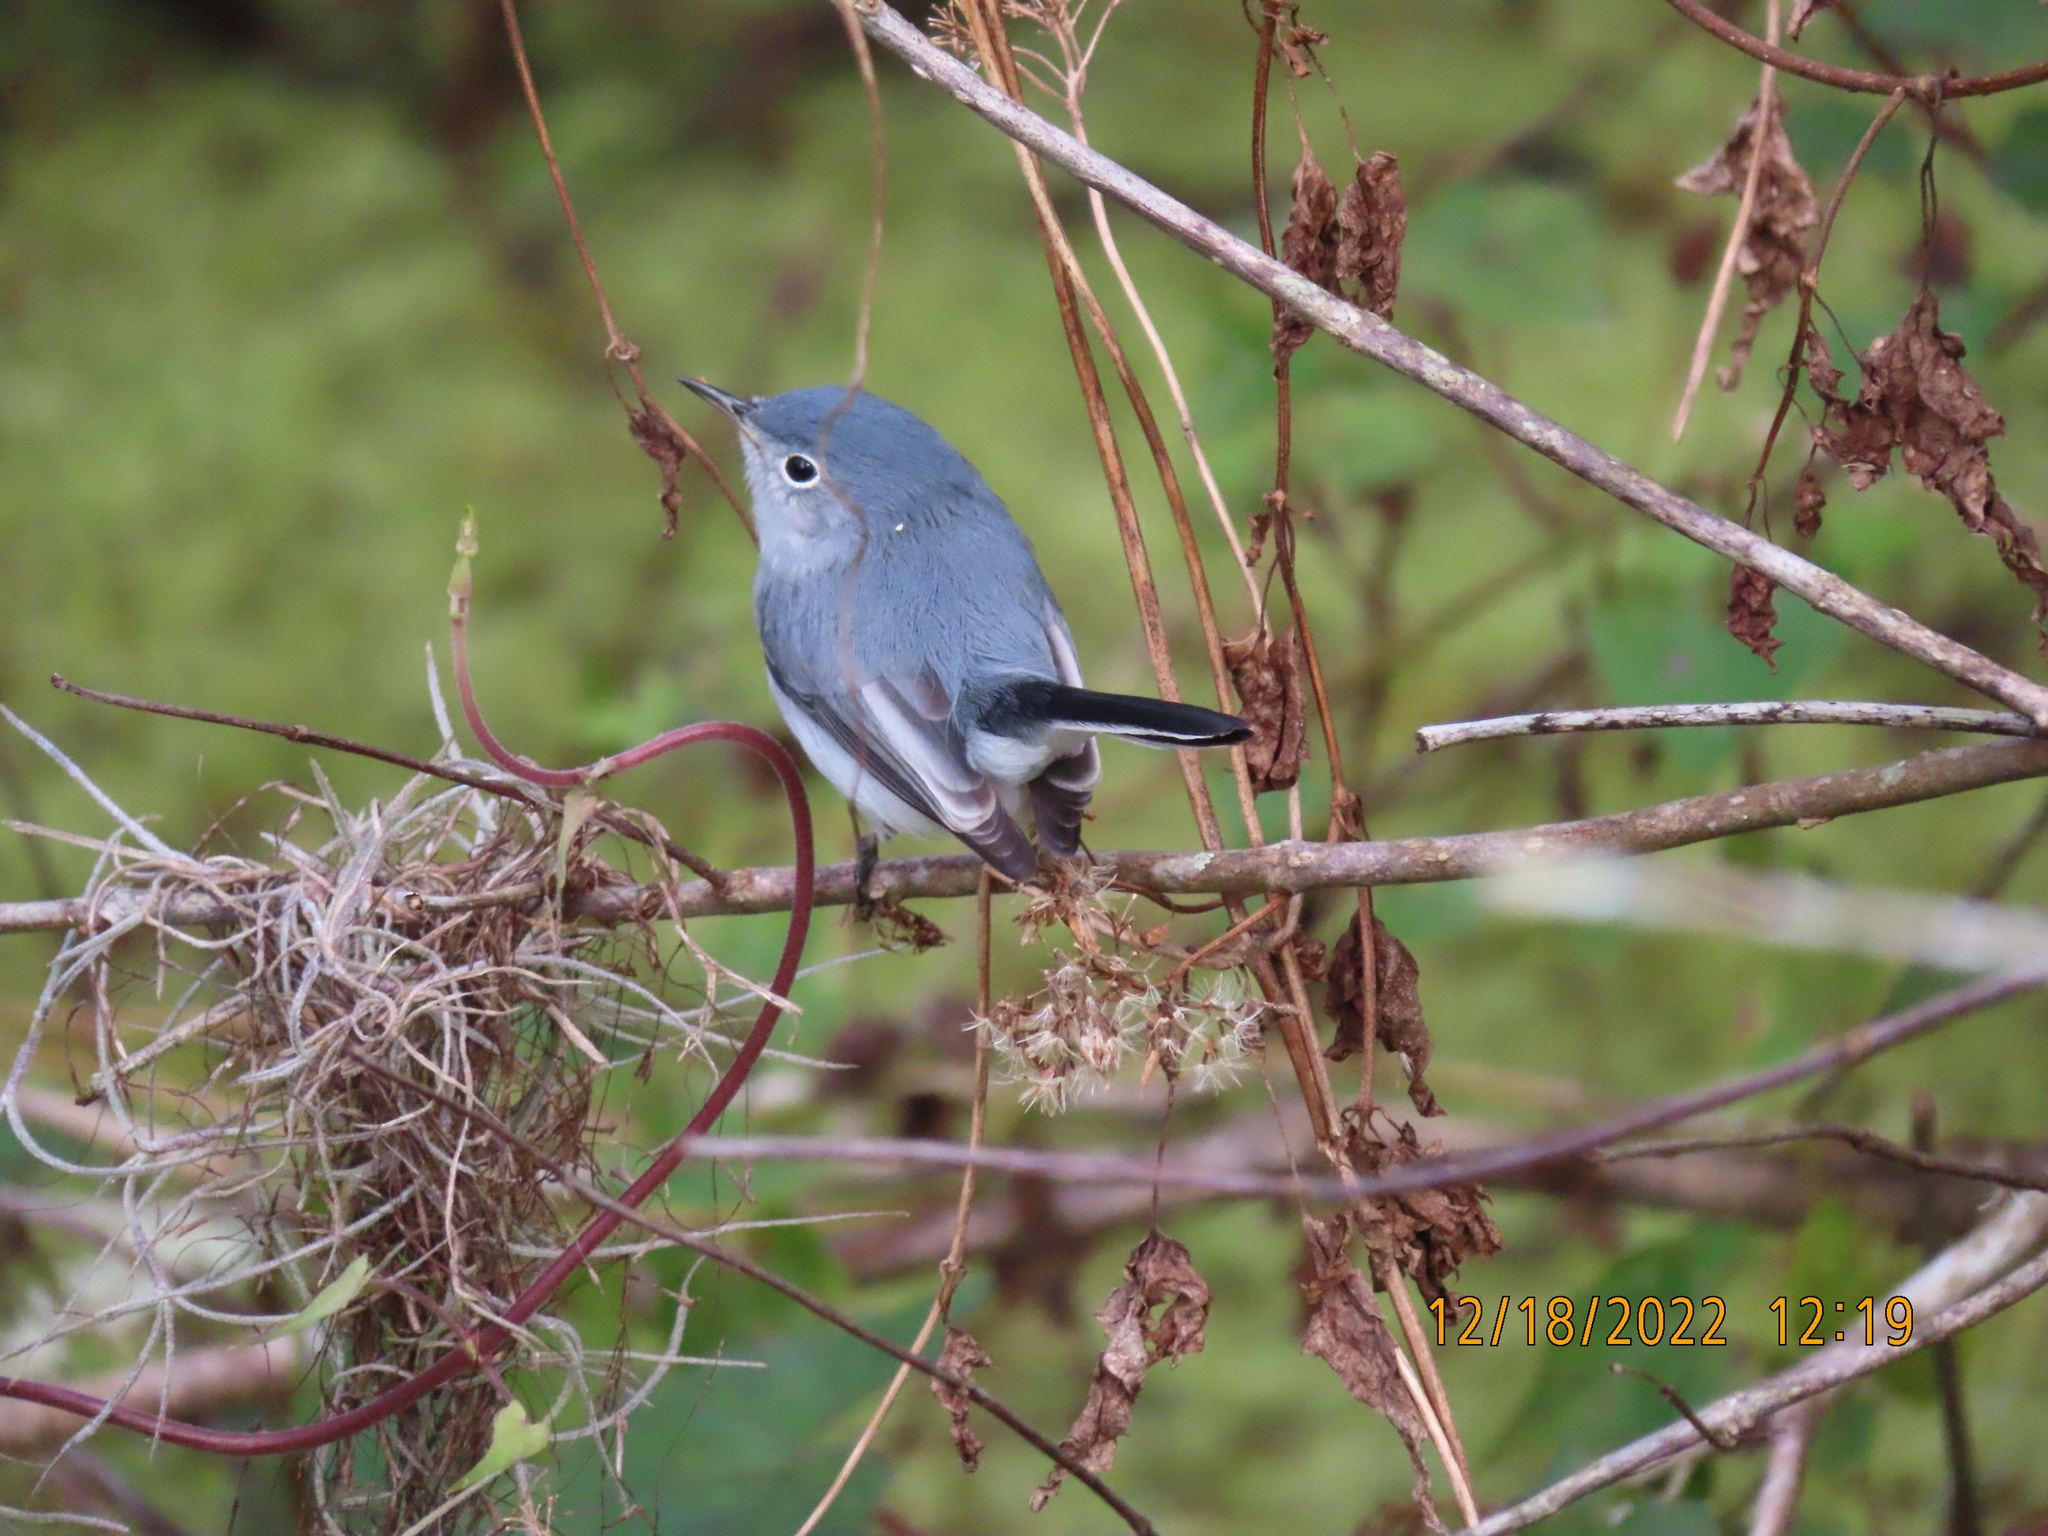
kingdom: Animalia
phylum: Chordata
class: Aves
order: Passeriformes
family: Polioptilidae
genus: Polioptila
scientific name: Polioptila caerulea
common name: Blue-gray gnatcatcher
